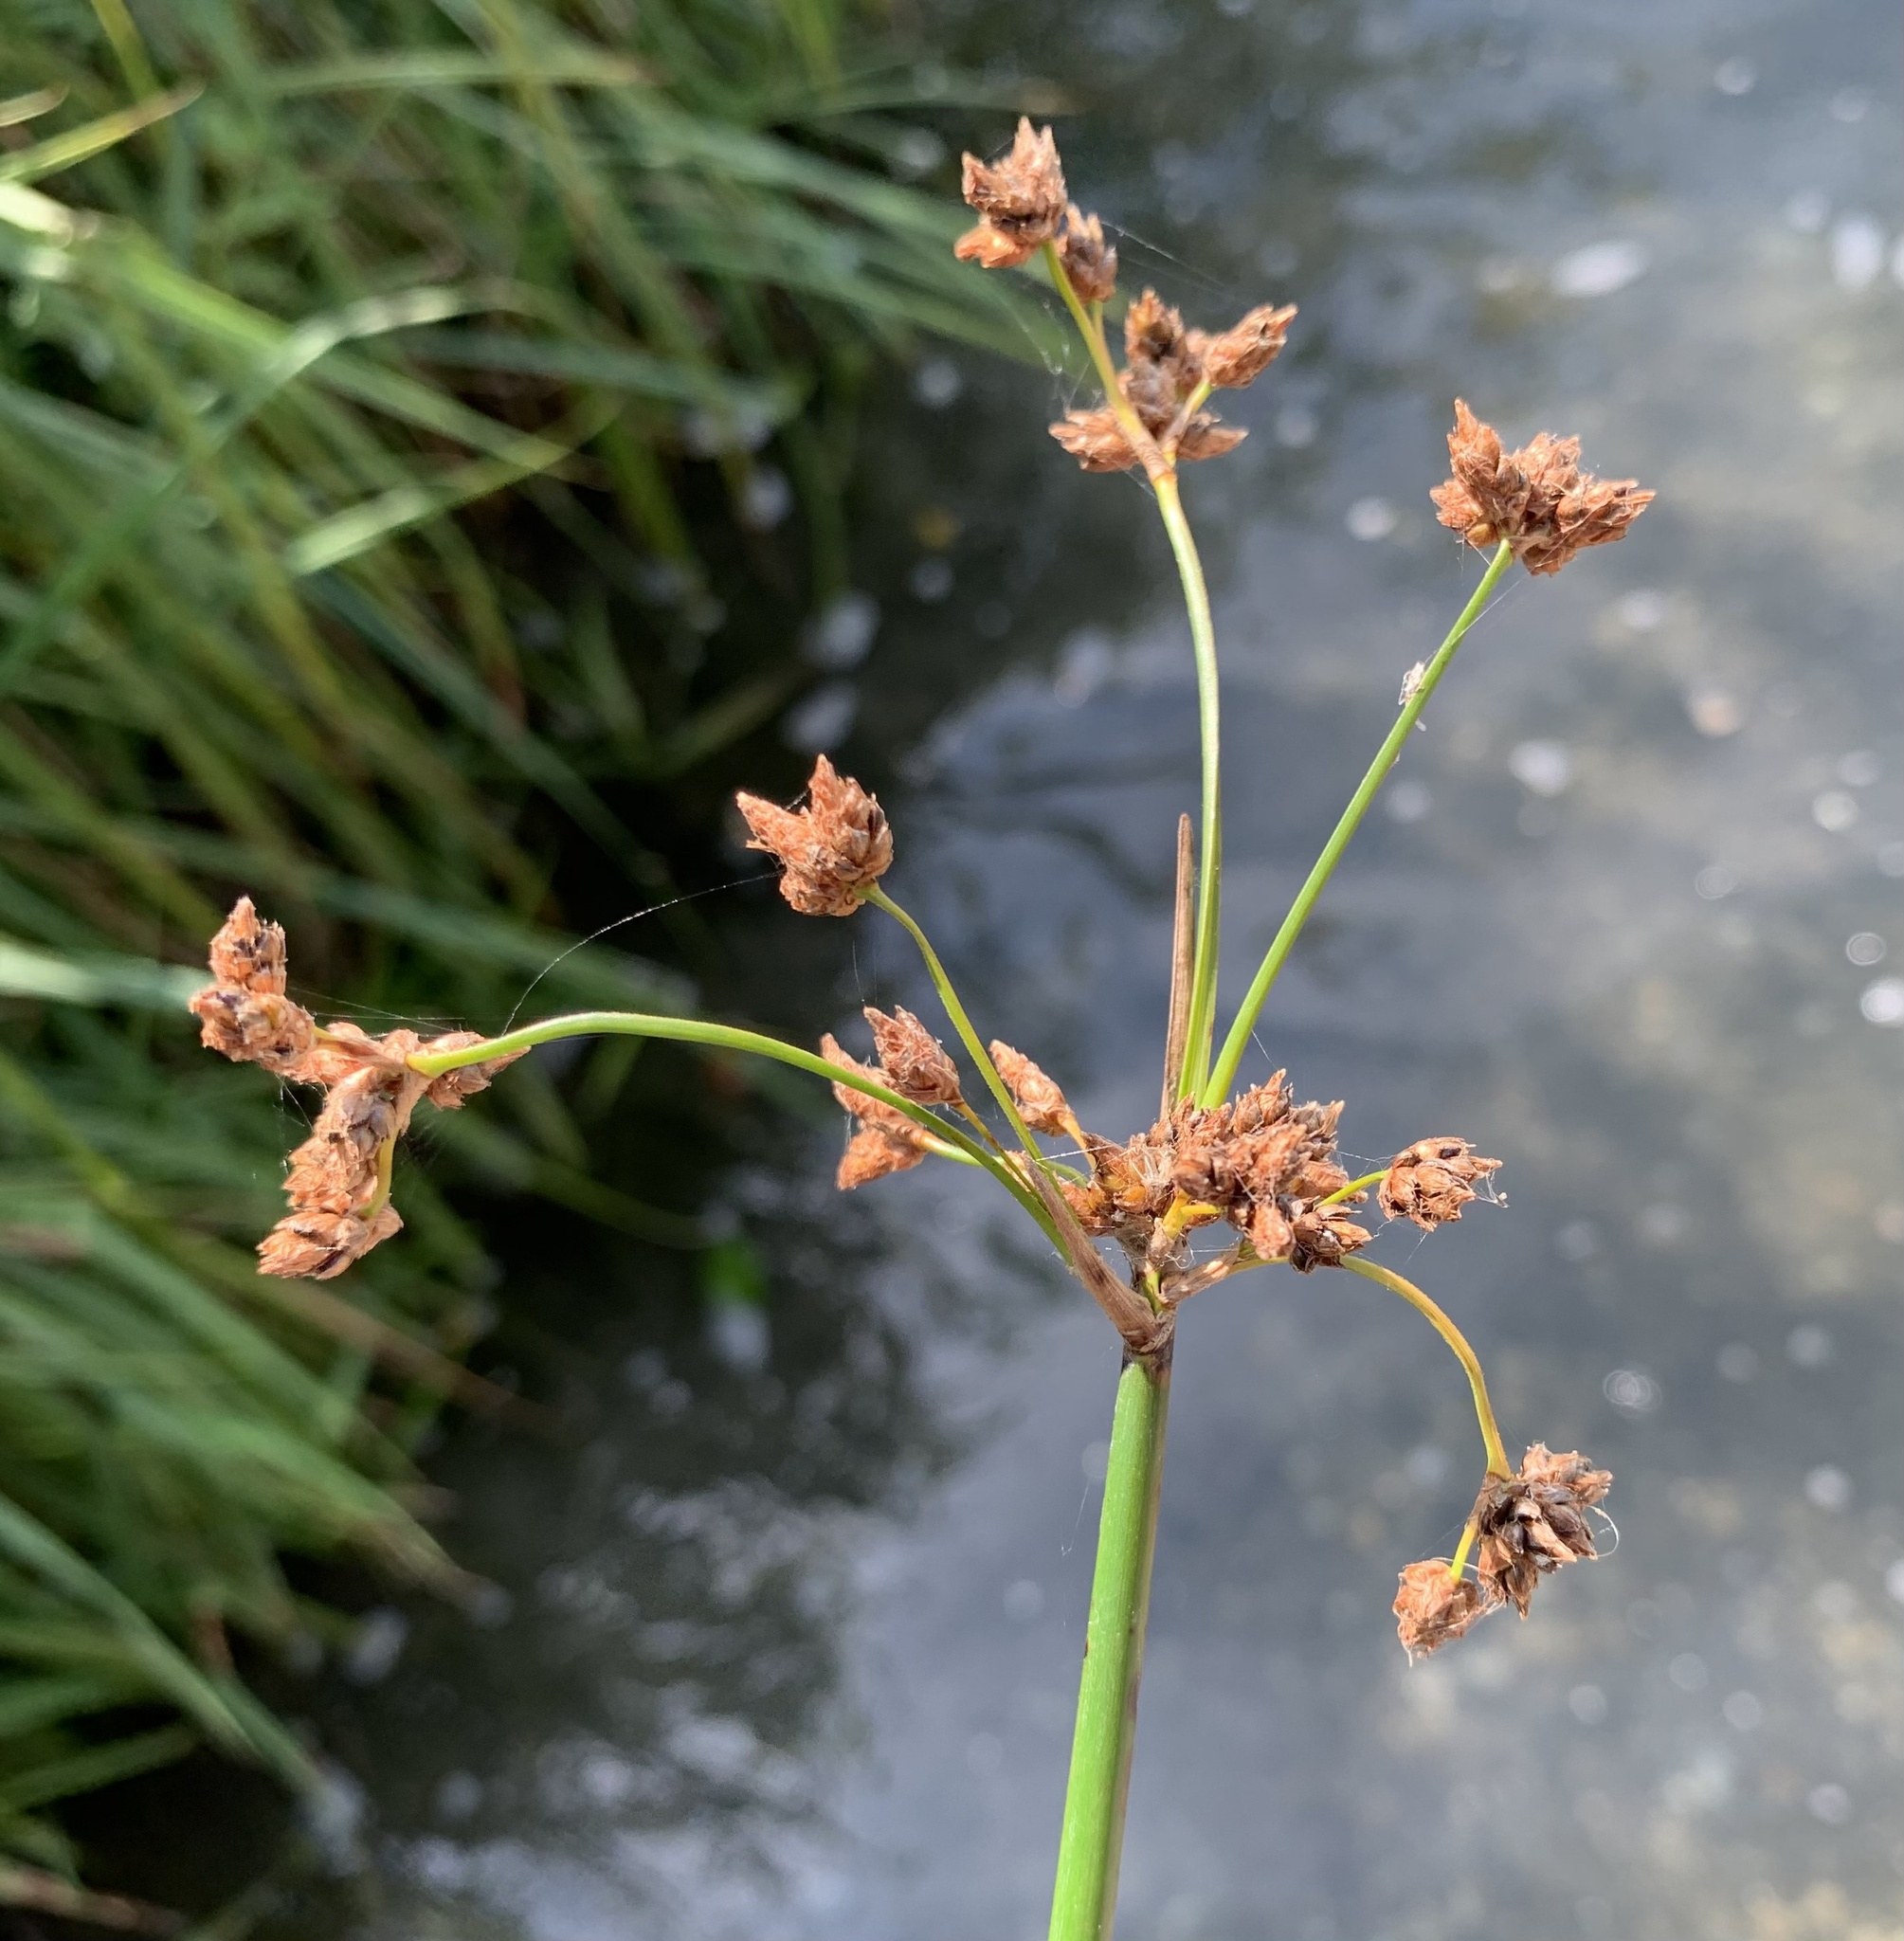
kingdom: Plantae
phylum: Tracheophyta
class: Liliopsida
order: Poales
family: Cyperaceae
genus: Schoenoplectus
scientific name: Schoenoplectus lacustris
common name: Common club-rush
